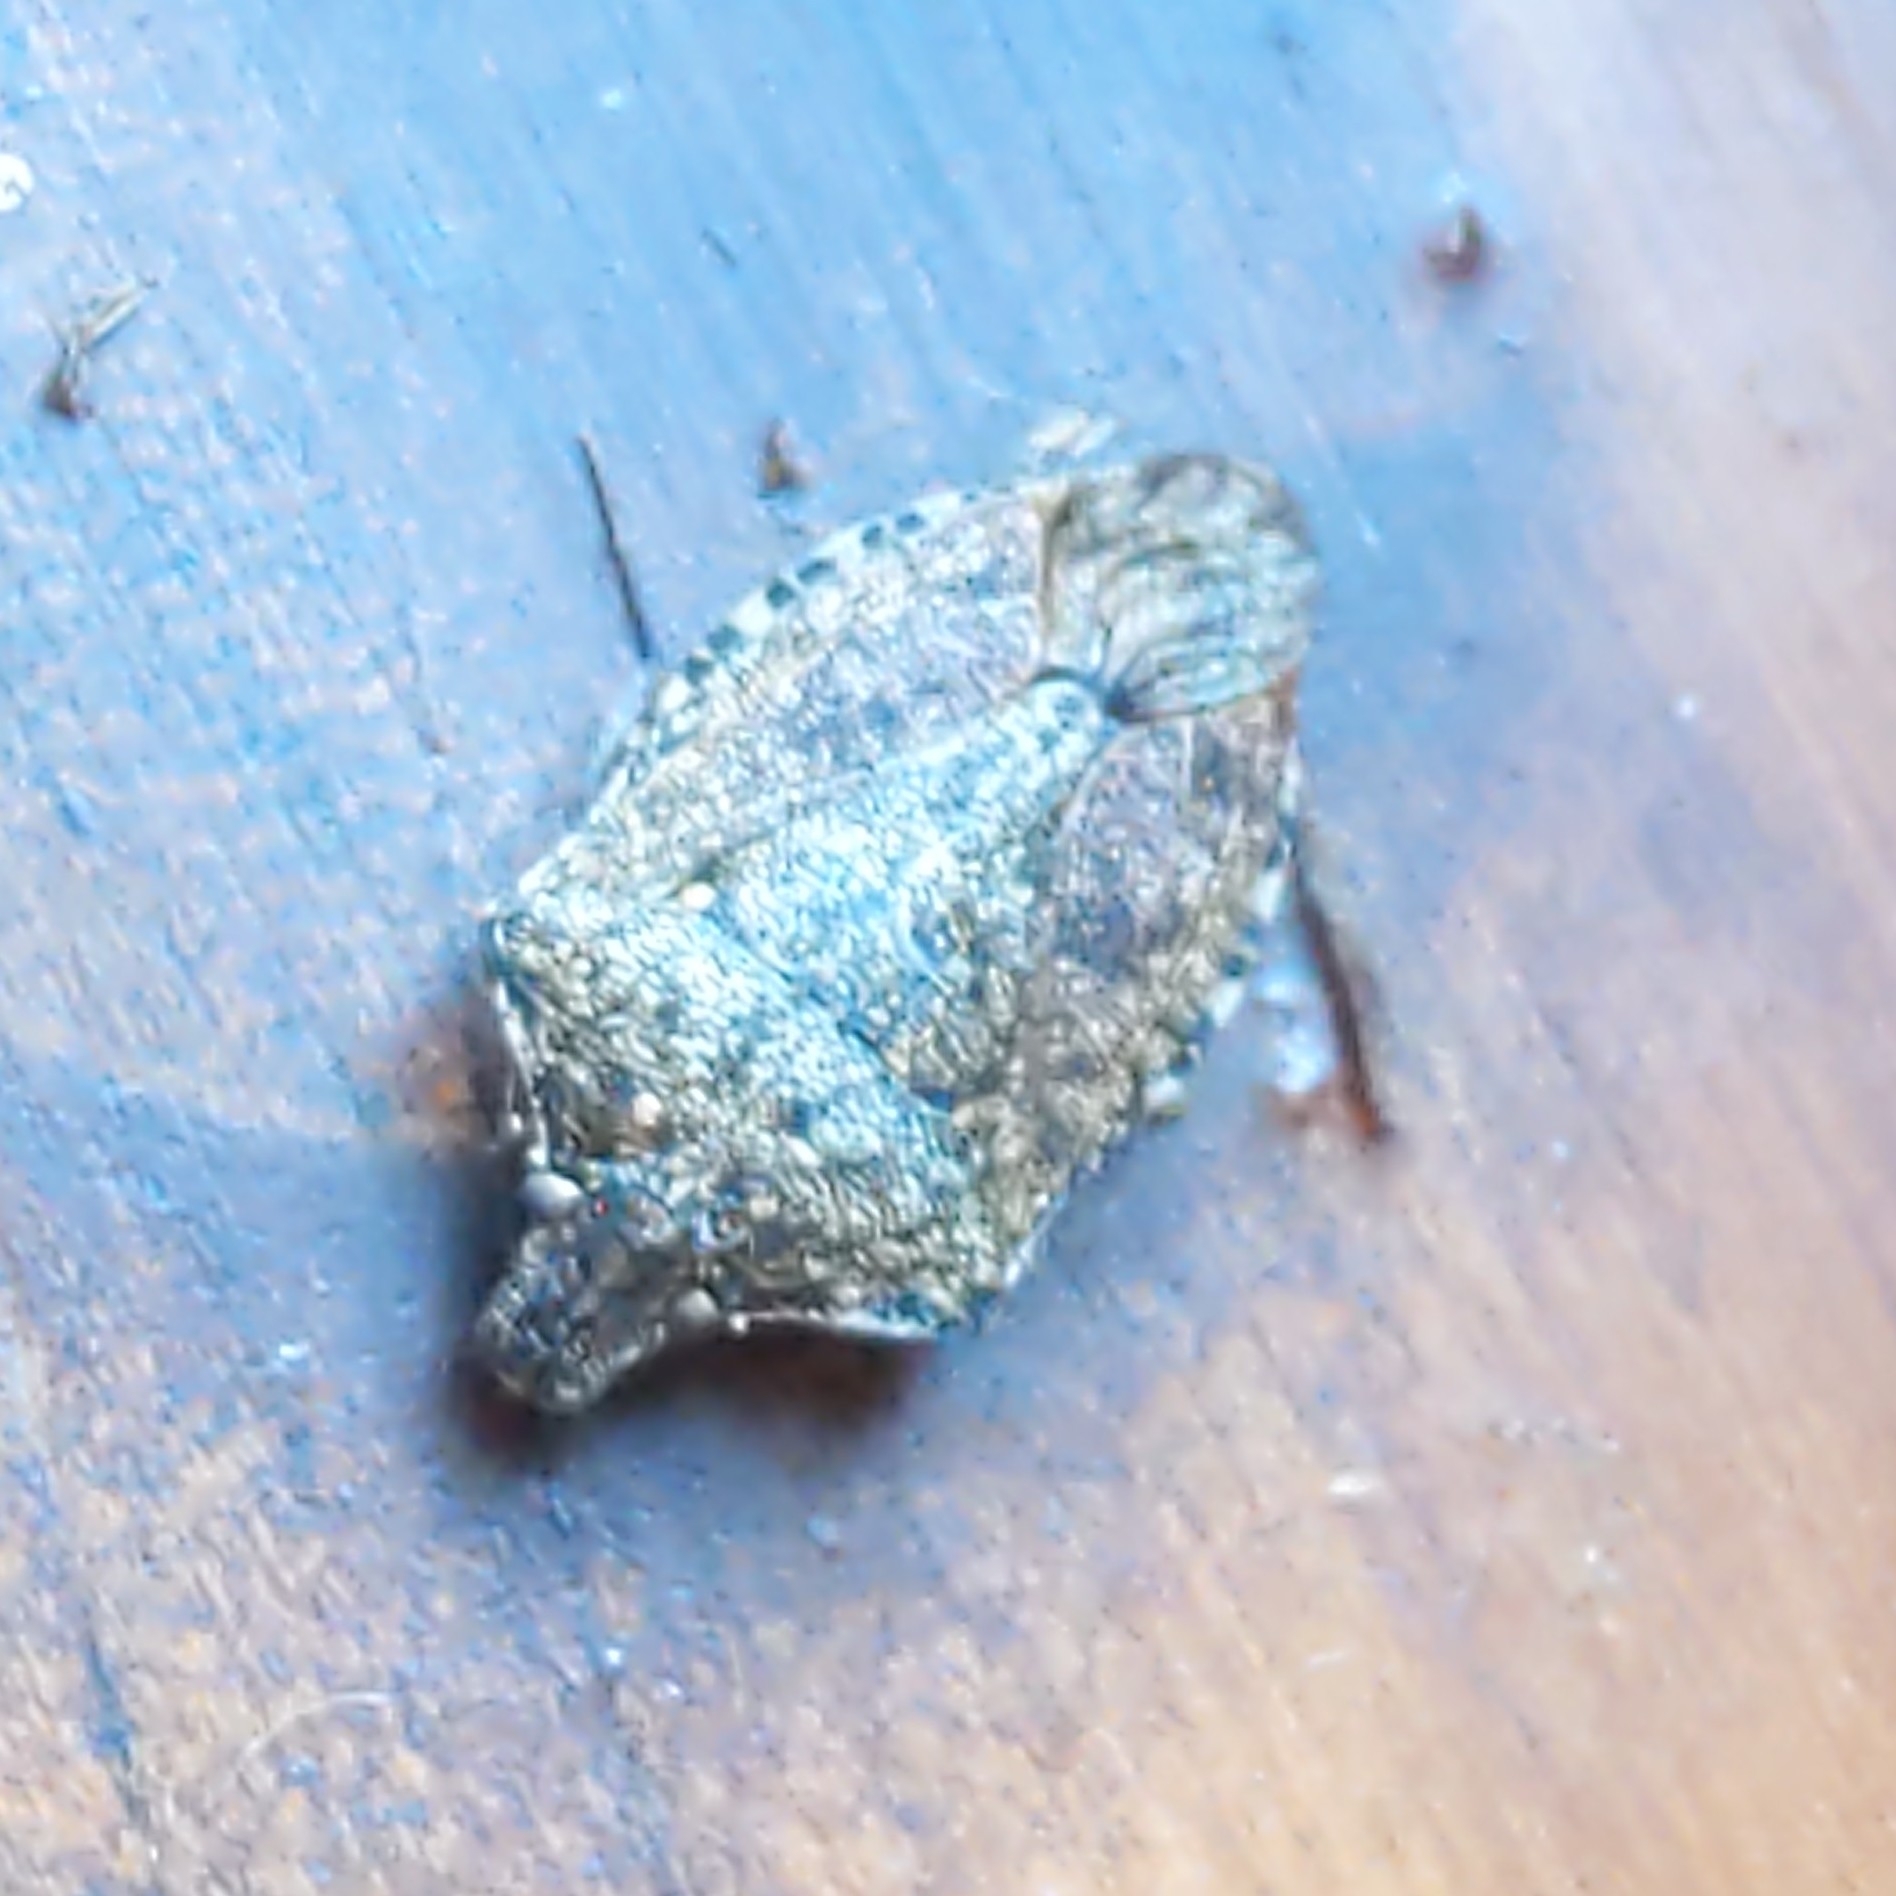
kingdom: Animalia
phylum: Arthropoda
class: Insecta
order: Hemiptera
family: Pentatomidae
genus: Halyomorpha
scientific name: Halyomorpha halys
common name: Brown marmorated stink bug
